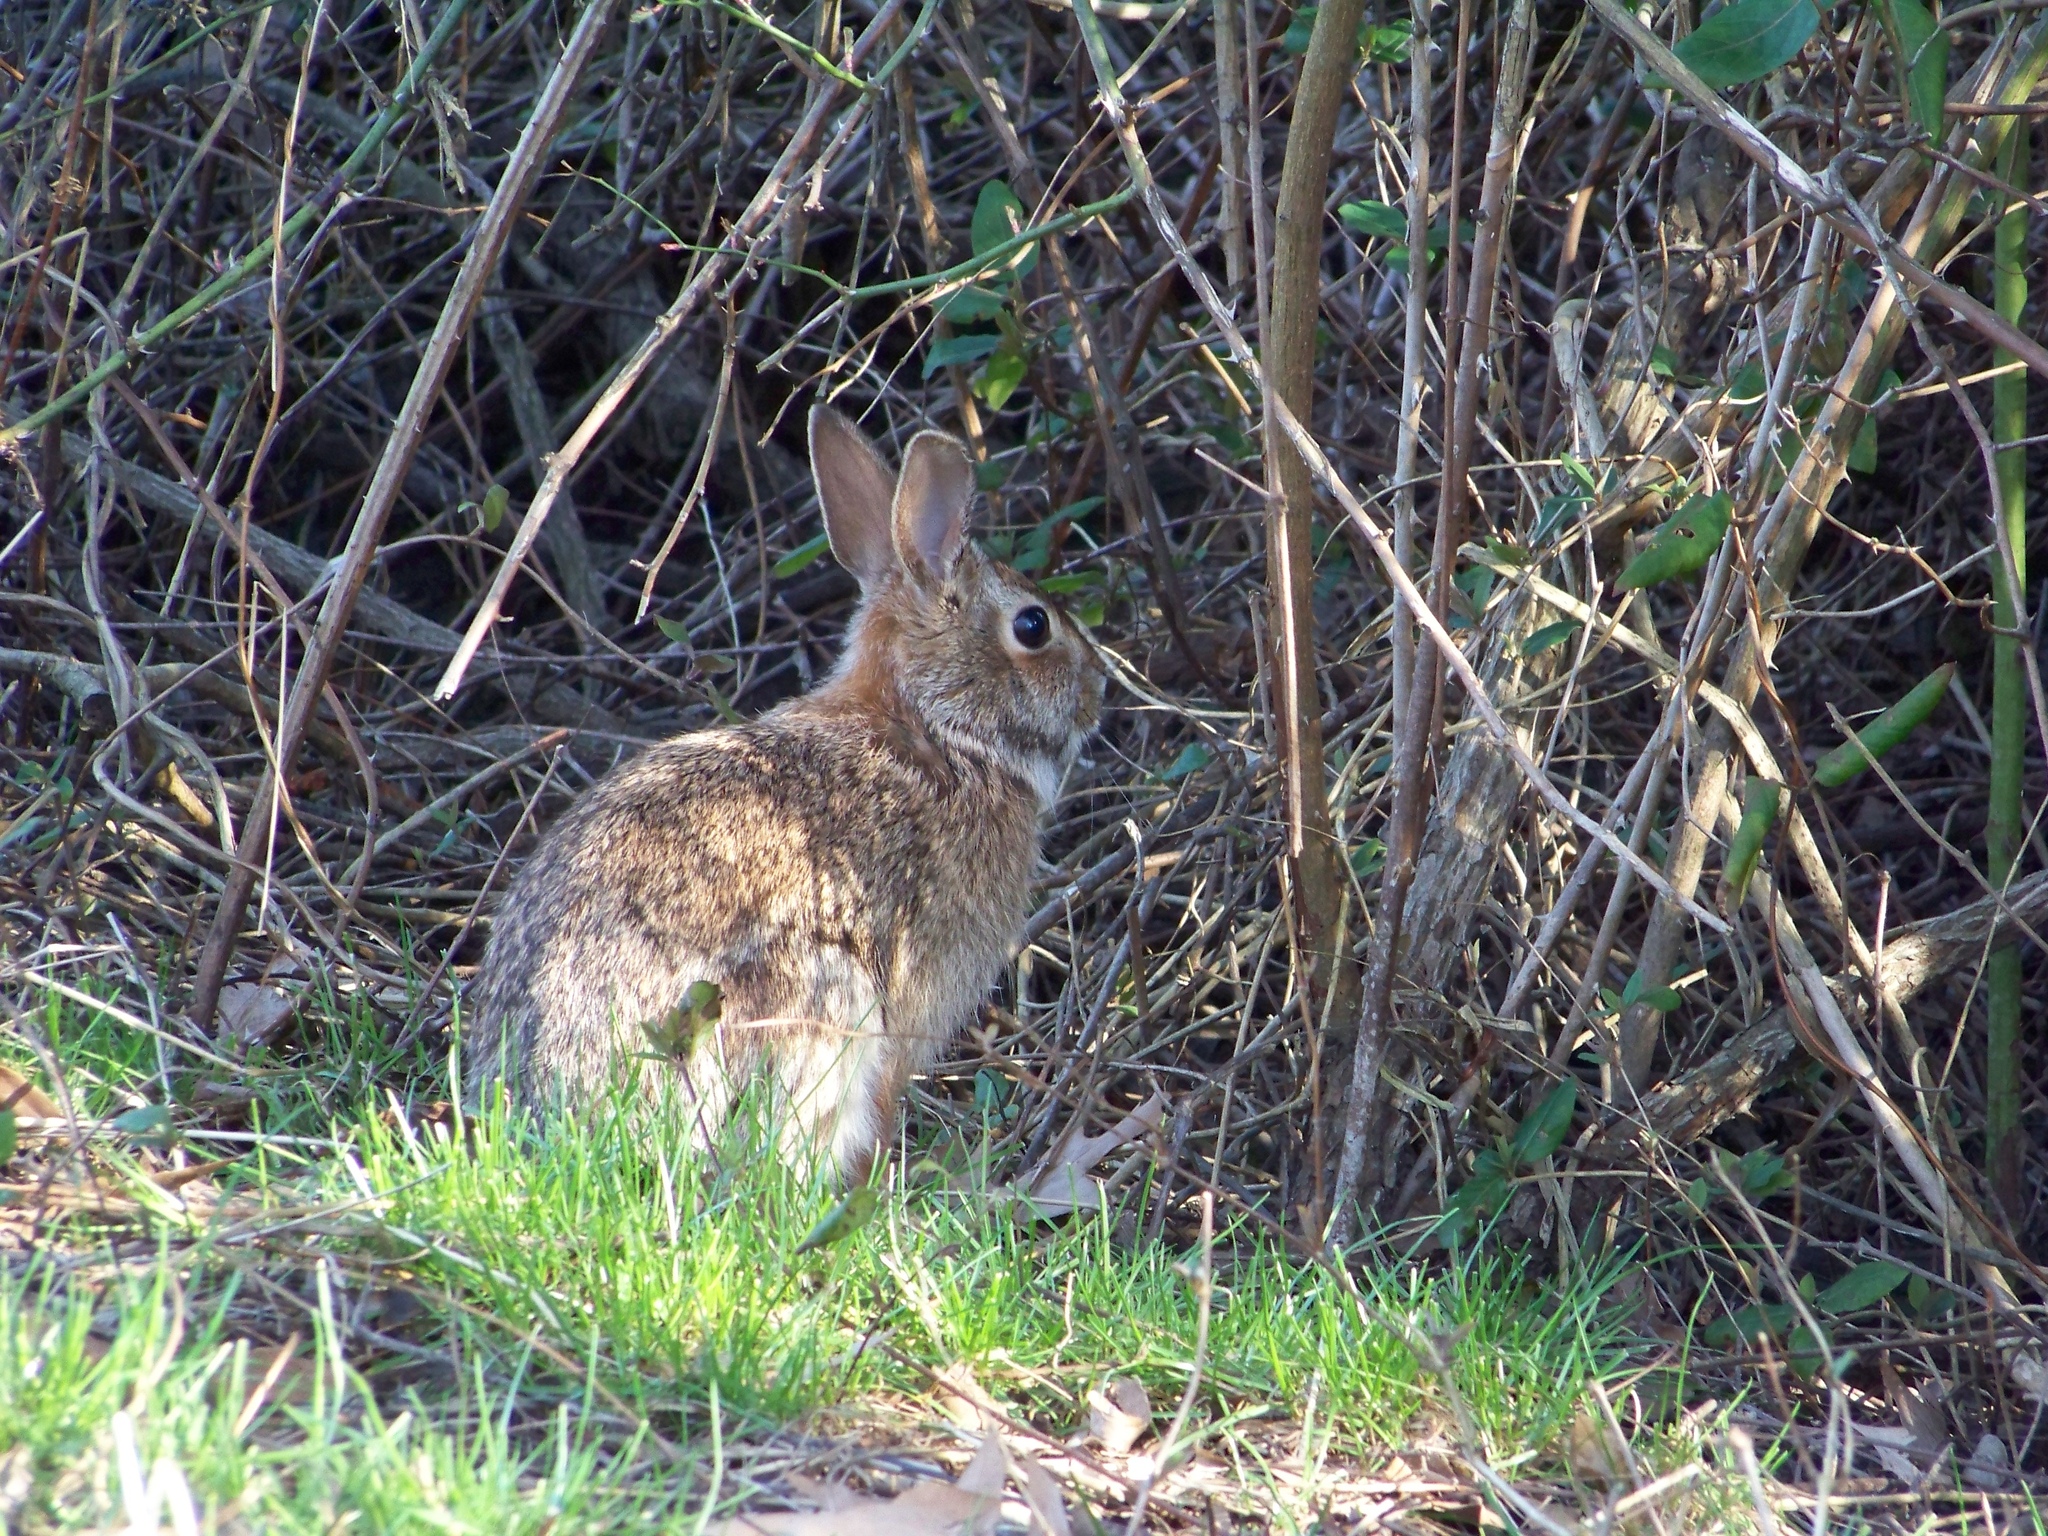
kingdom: Animalia
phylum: Chordata
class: Mammalia
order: Lagomorpha
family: Leporidae
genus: Sylvilagus
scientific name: Sylvilagus floridanus
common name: Eastern cottontail
